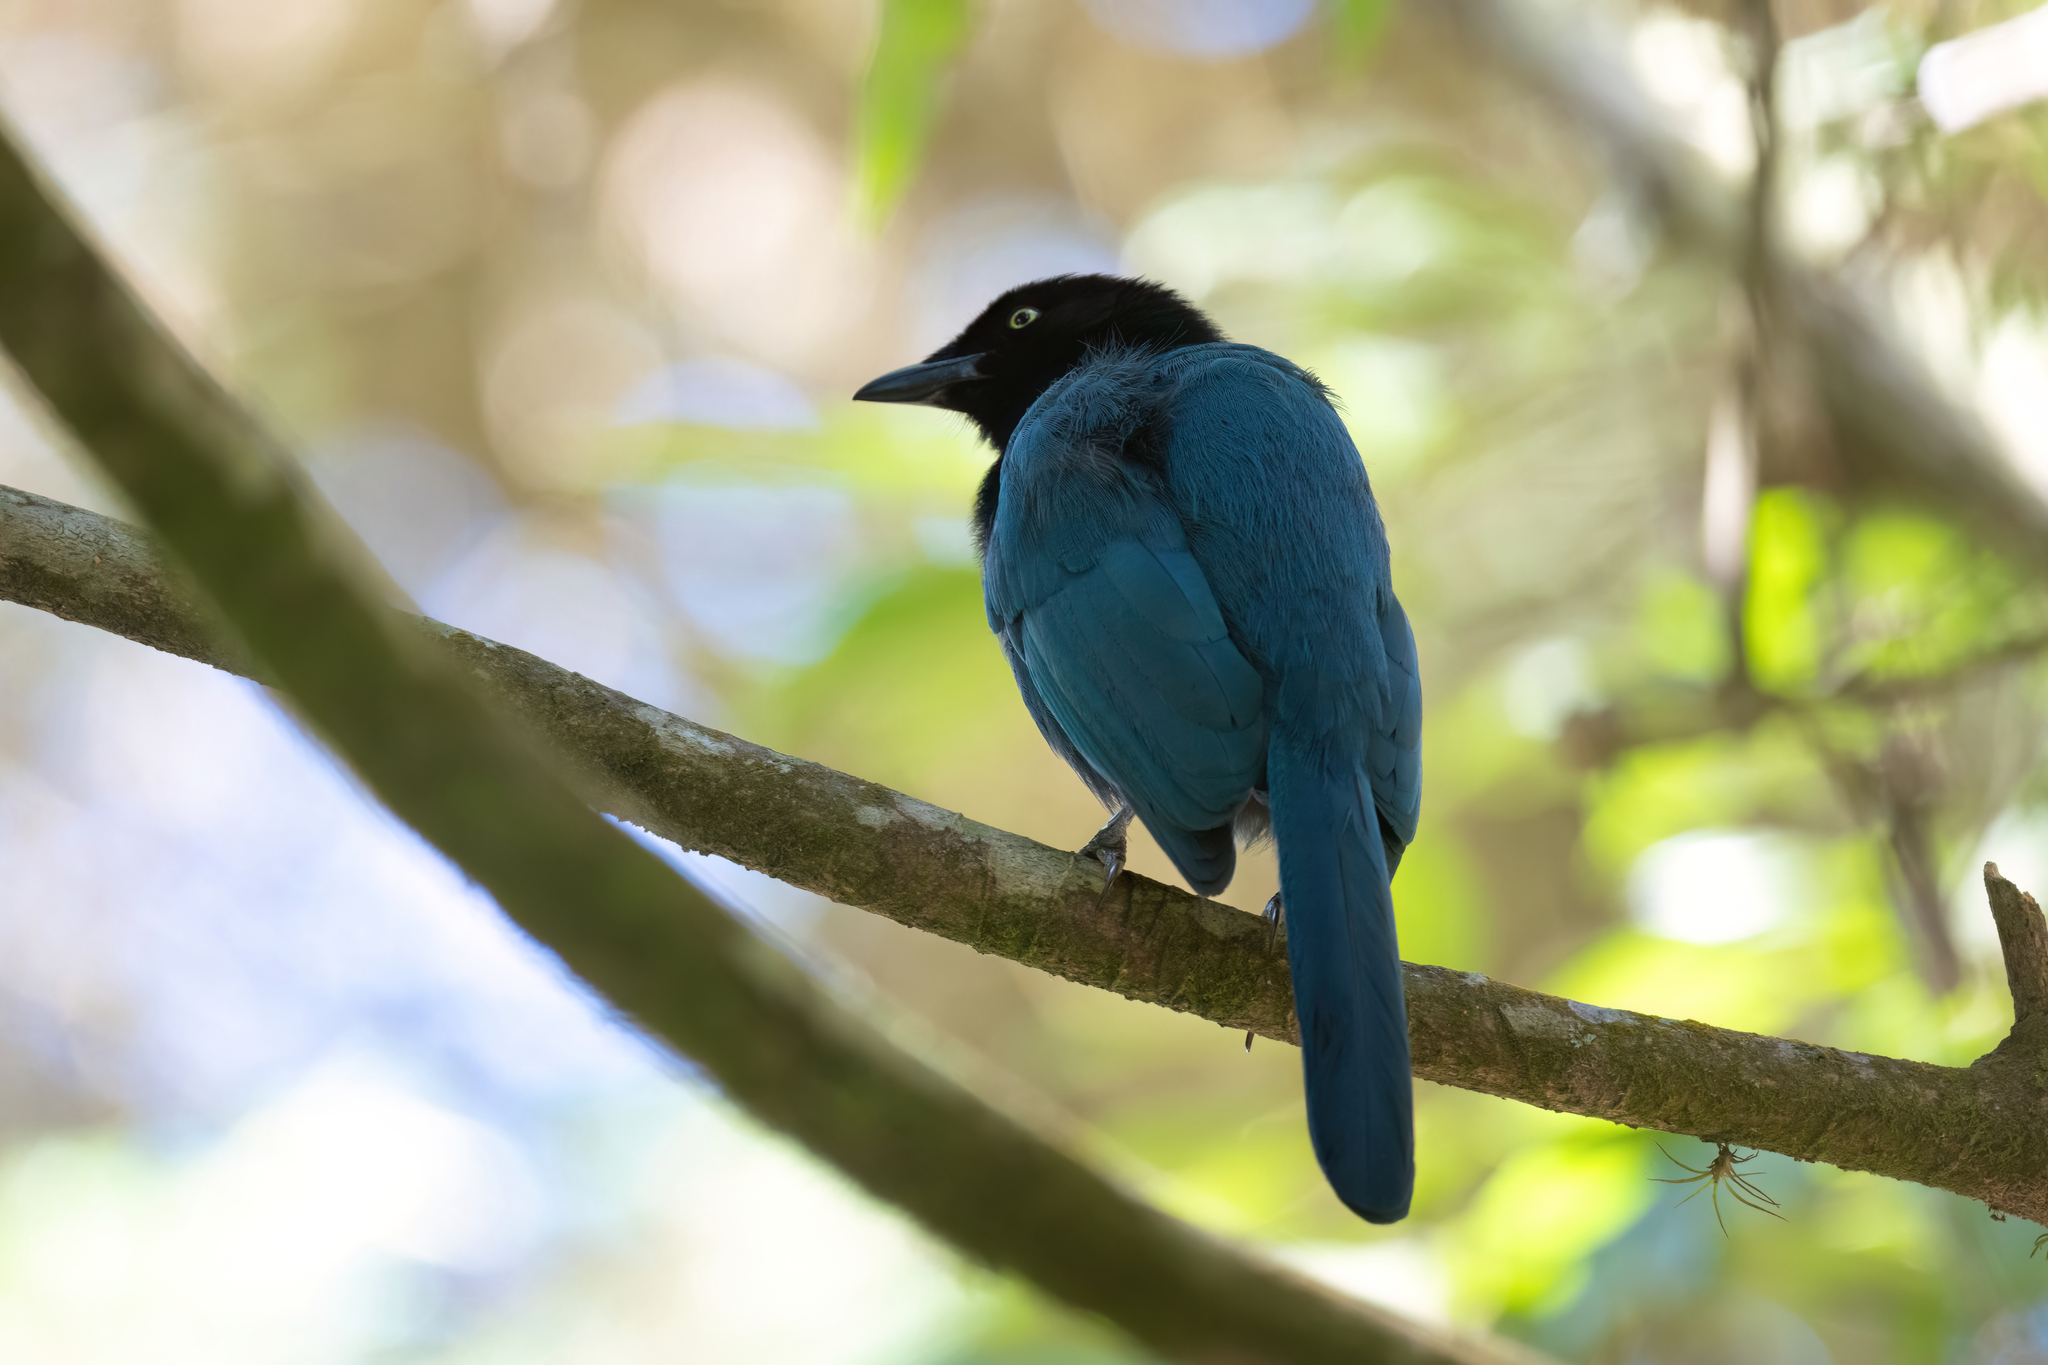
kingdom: Animalia
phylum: Chordata
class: Aves
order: Passeriformes
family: Corvidae
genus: Cyanocorax
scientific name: Cyanocorax melanocyaneus
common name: Bushy-crested jay
